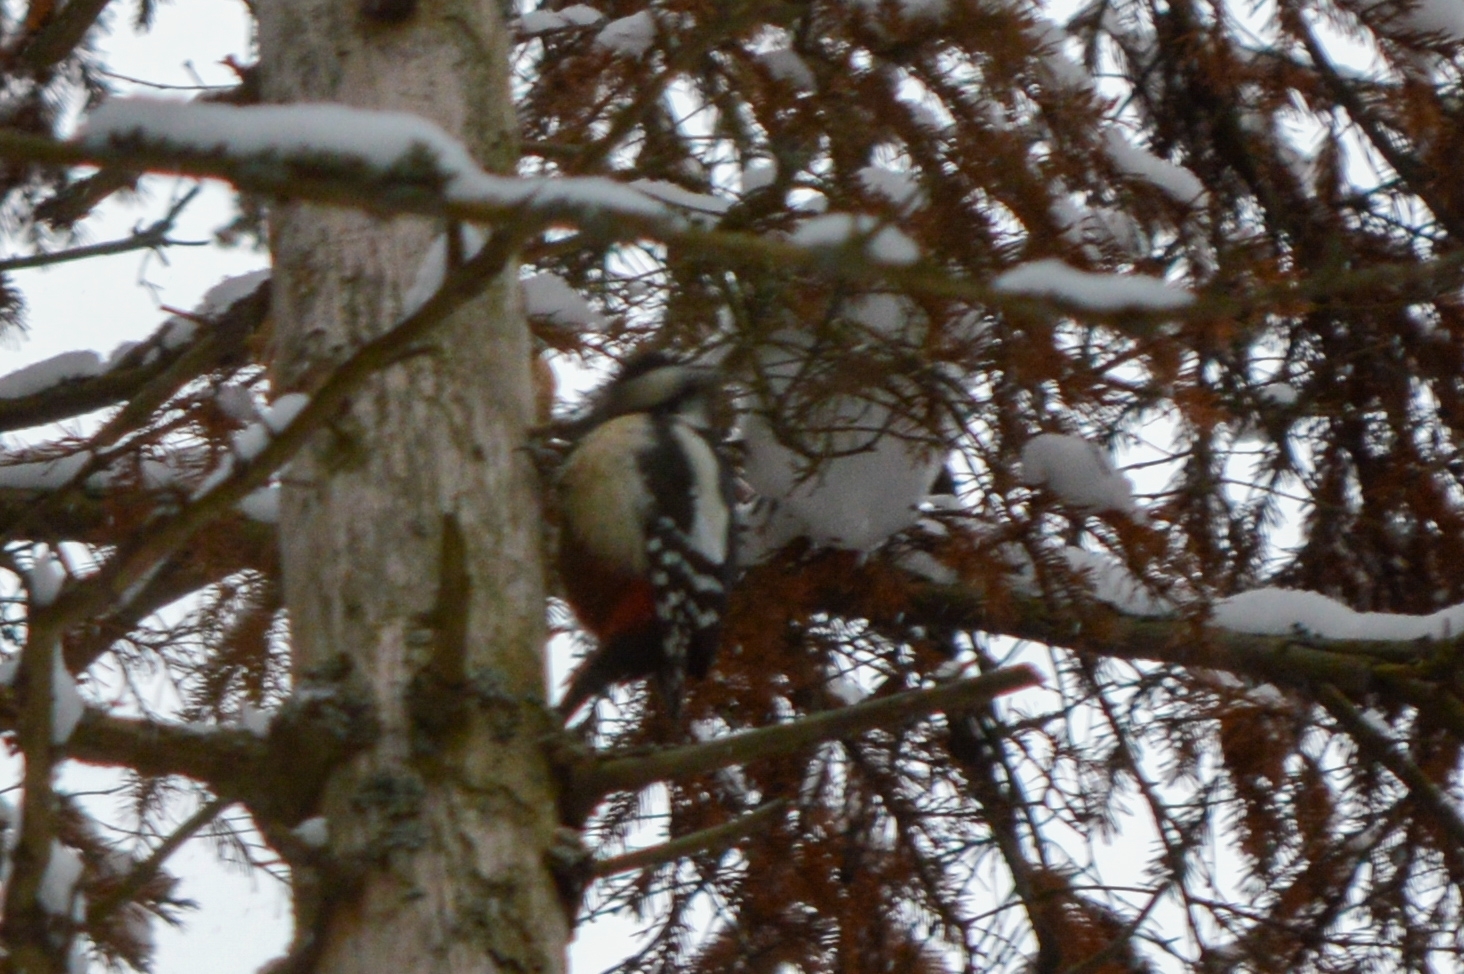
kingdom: Animalia
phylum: Chordata
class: Aves
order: Piciformes
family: Picidae
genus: Dendrocopos
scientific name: Dendrocopos major
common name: Great spotted woodpecker
